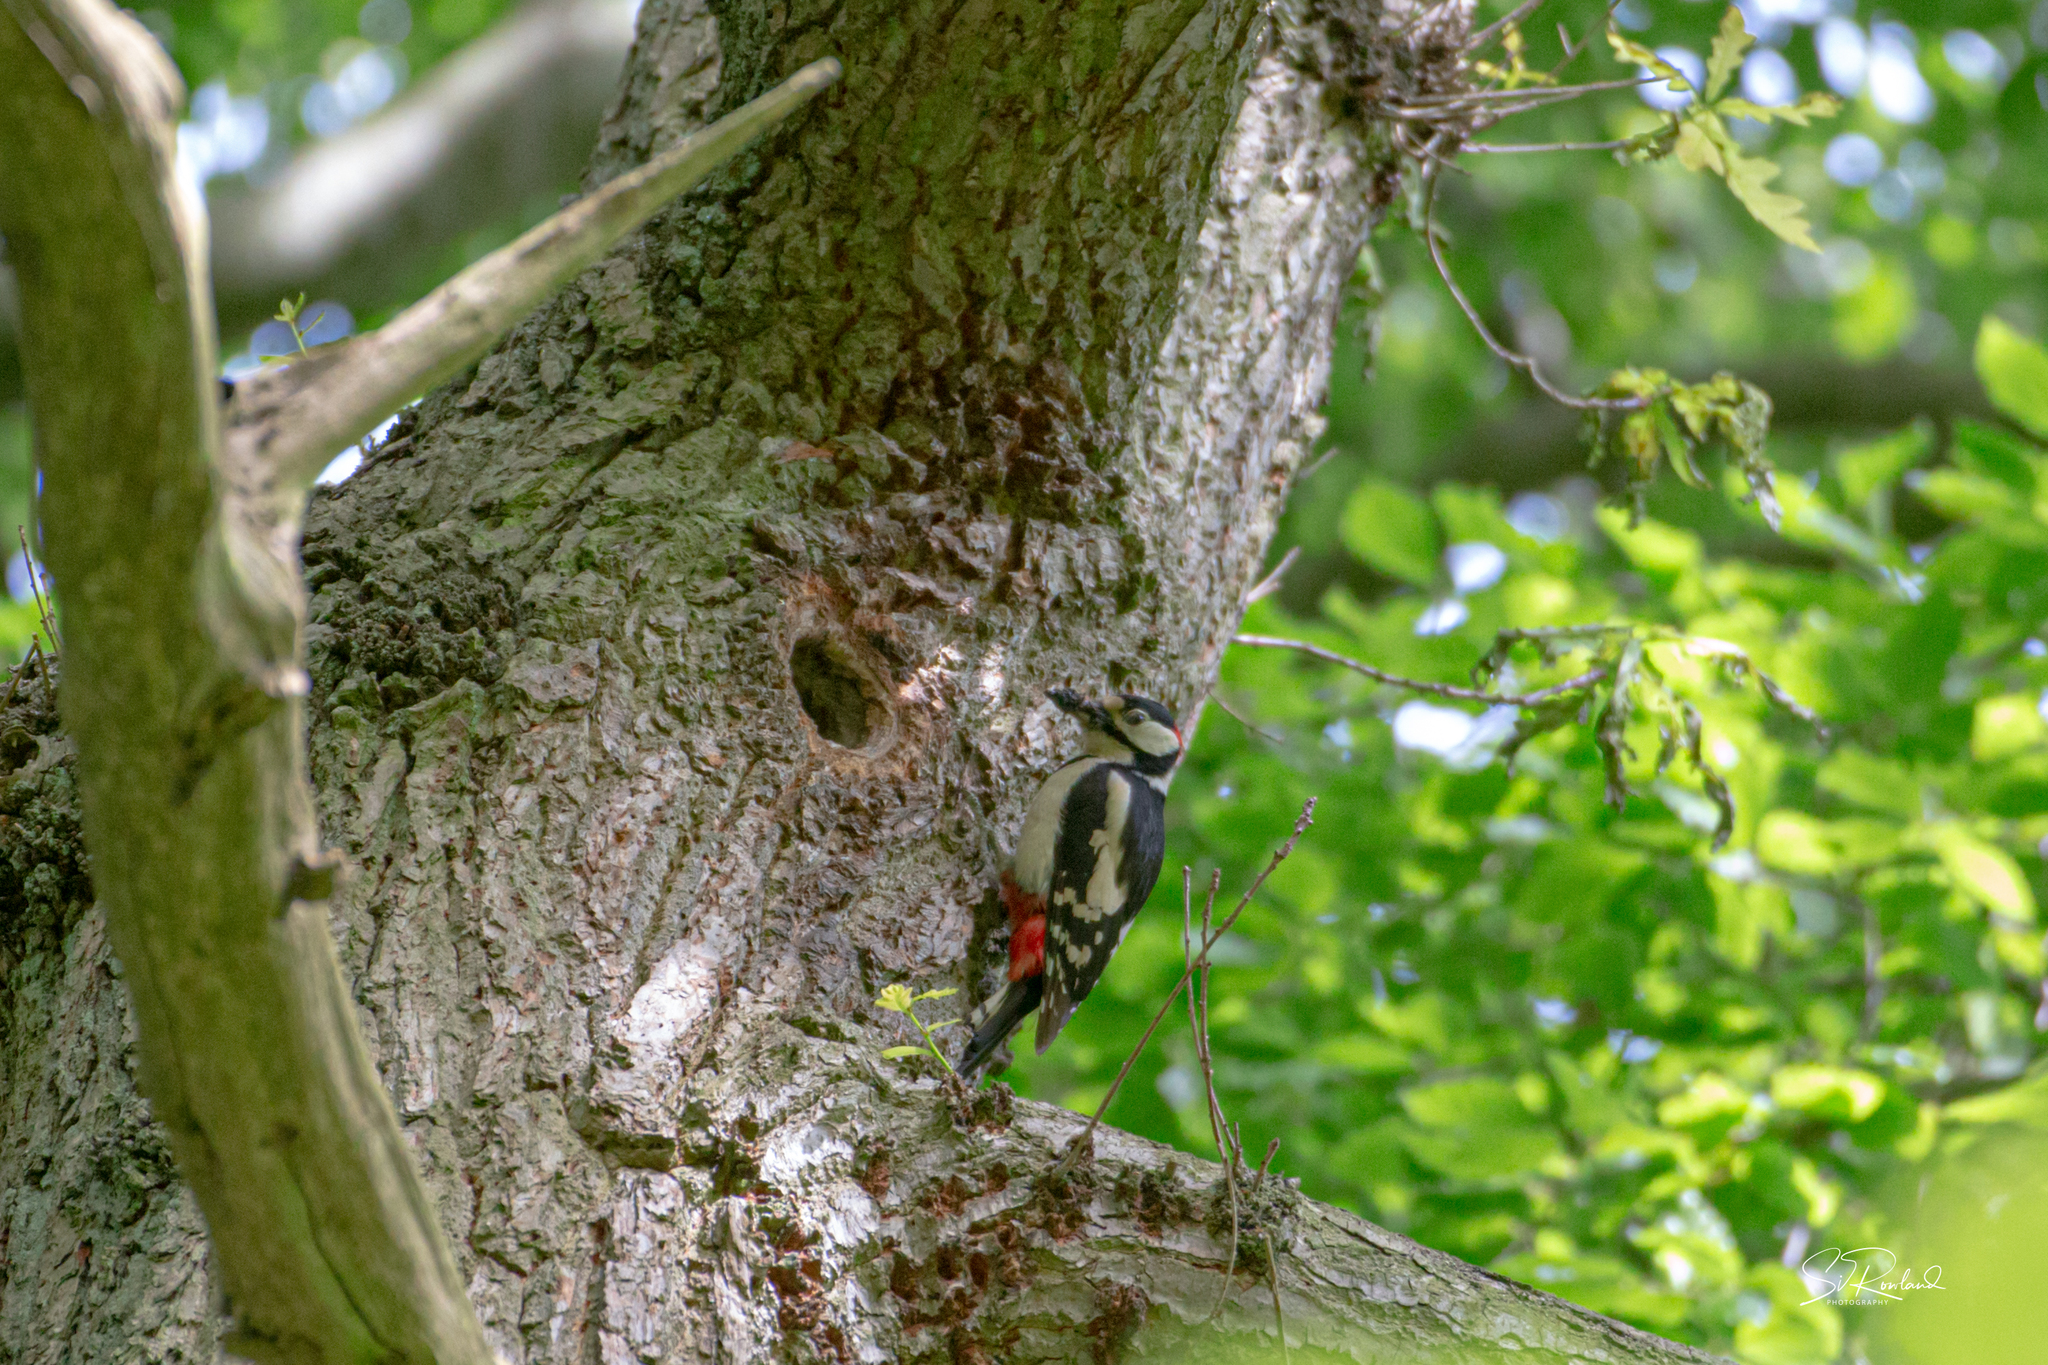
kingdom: Animalia
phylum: Chordata
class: Aves
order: Piciformes
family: Picidae
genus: Dendrocopos
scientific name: Dendrocopos major
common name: Great spotted woodpecker
